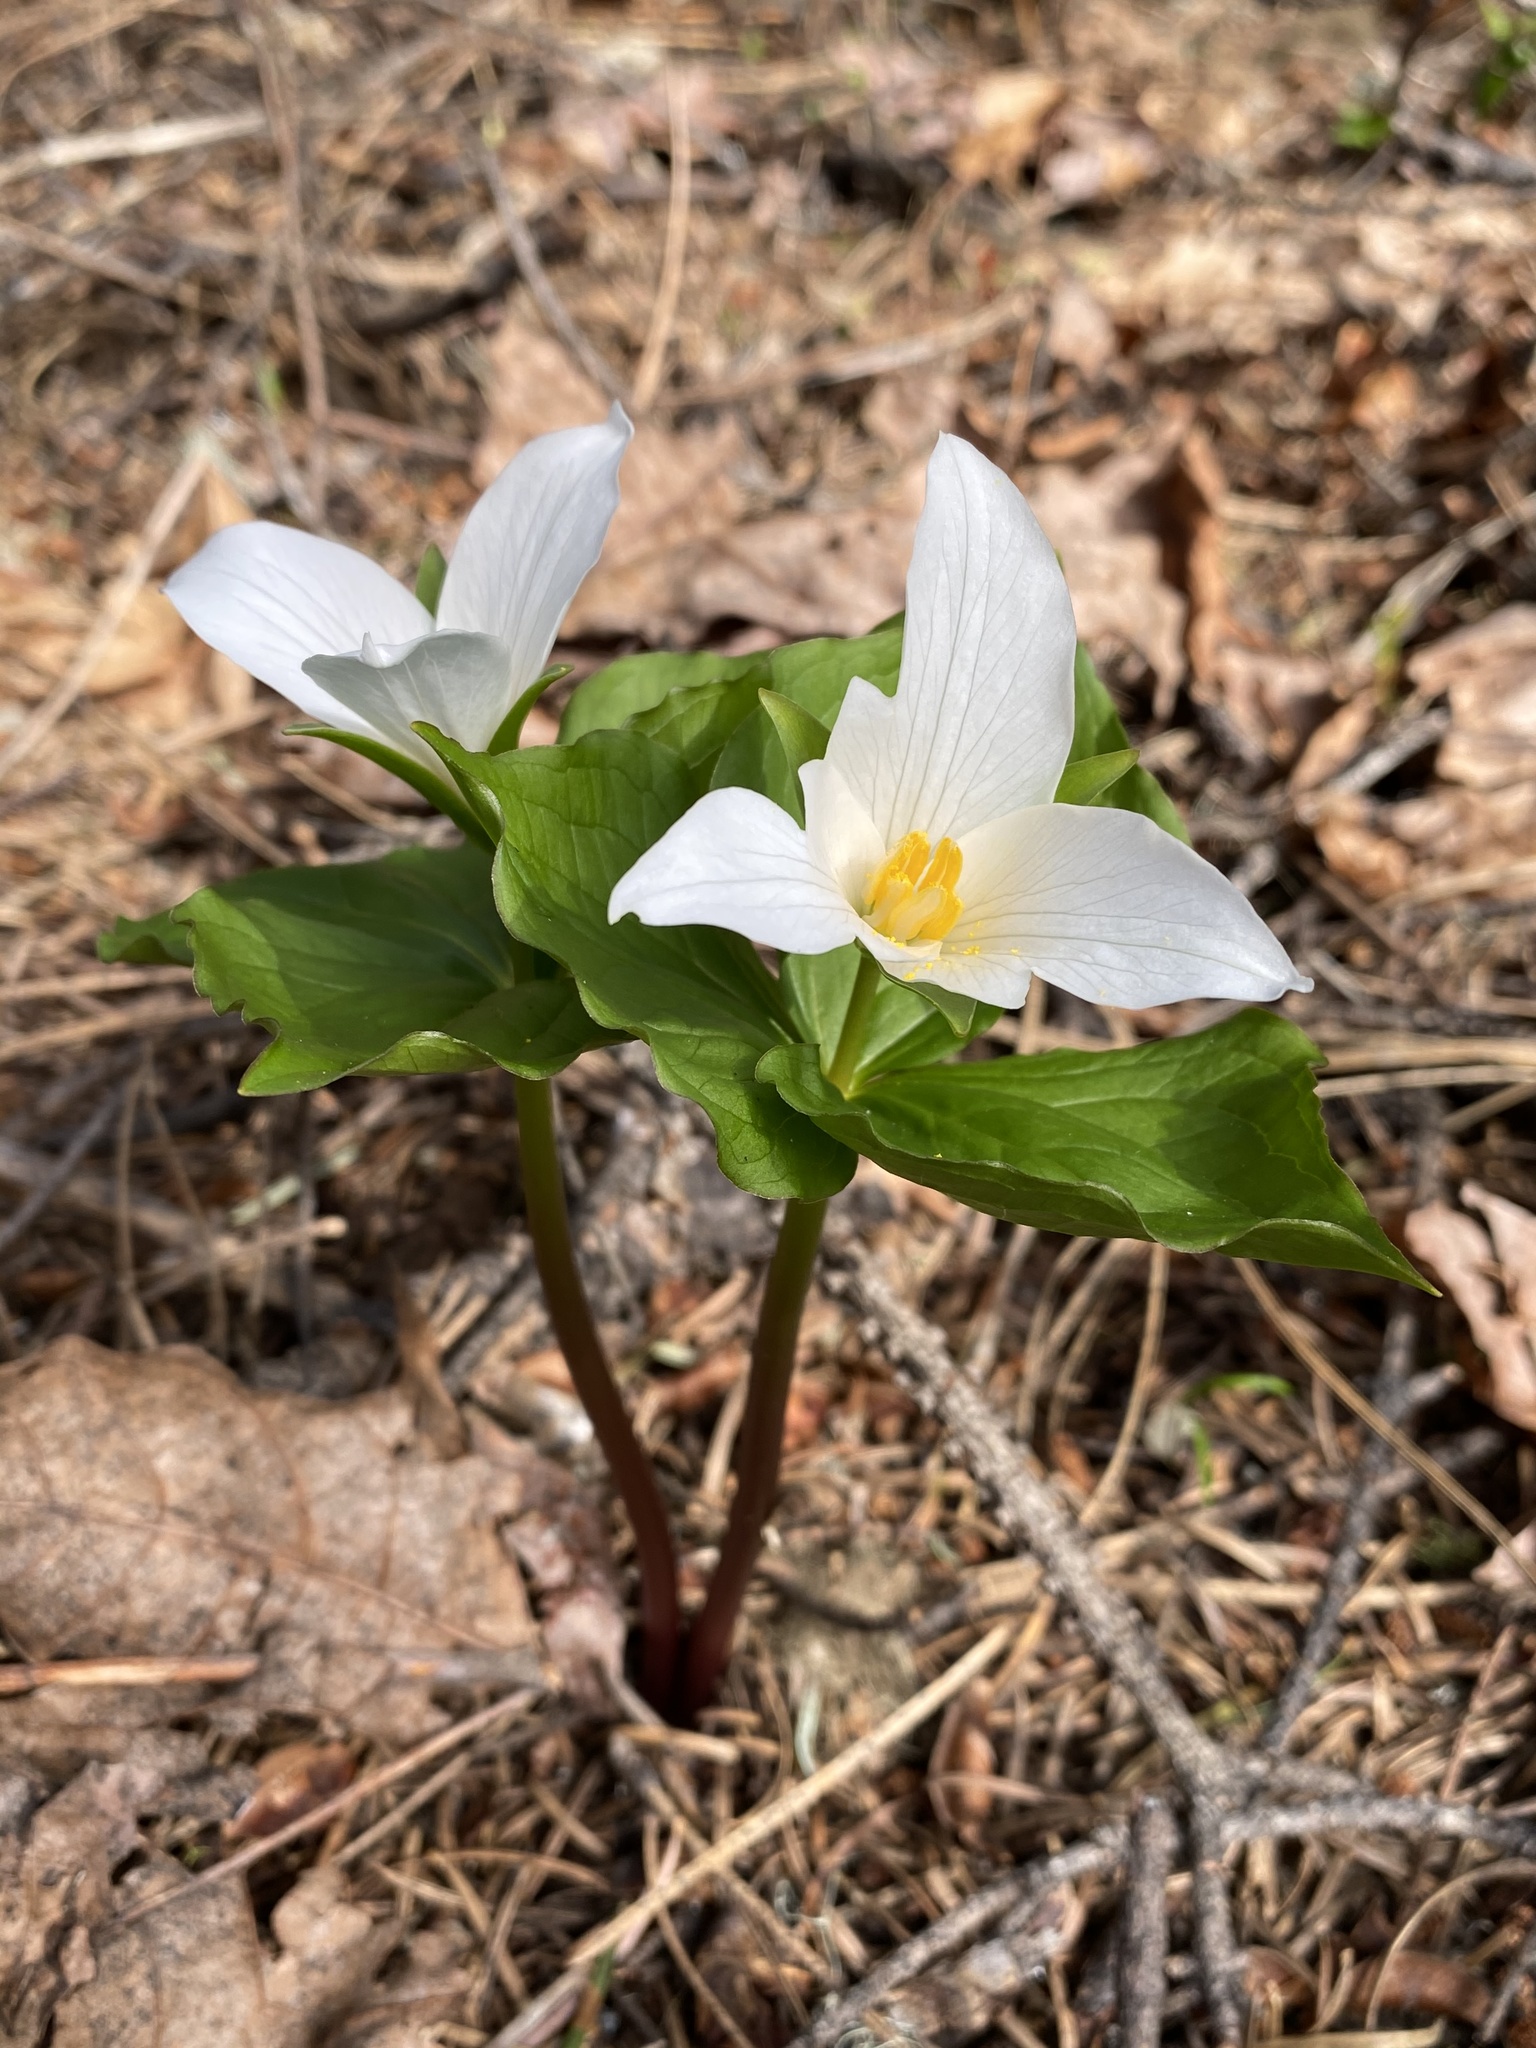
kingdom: Plantae
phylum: Tracheophyta
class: Liliopsida
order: Liliales
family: Melanthiaceae
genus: Trillium
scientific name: Trillium ovatum
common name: Pacific trillium
